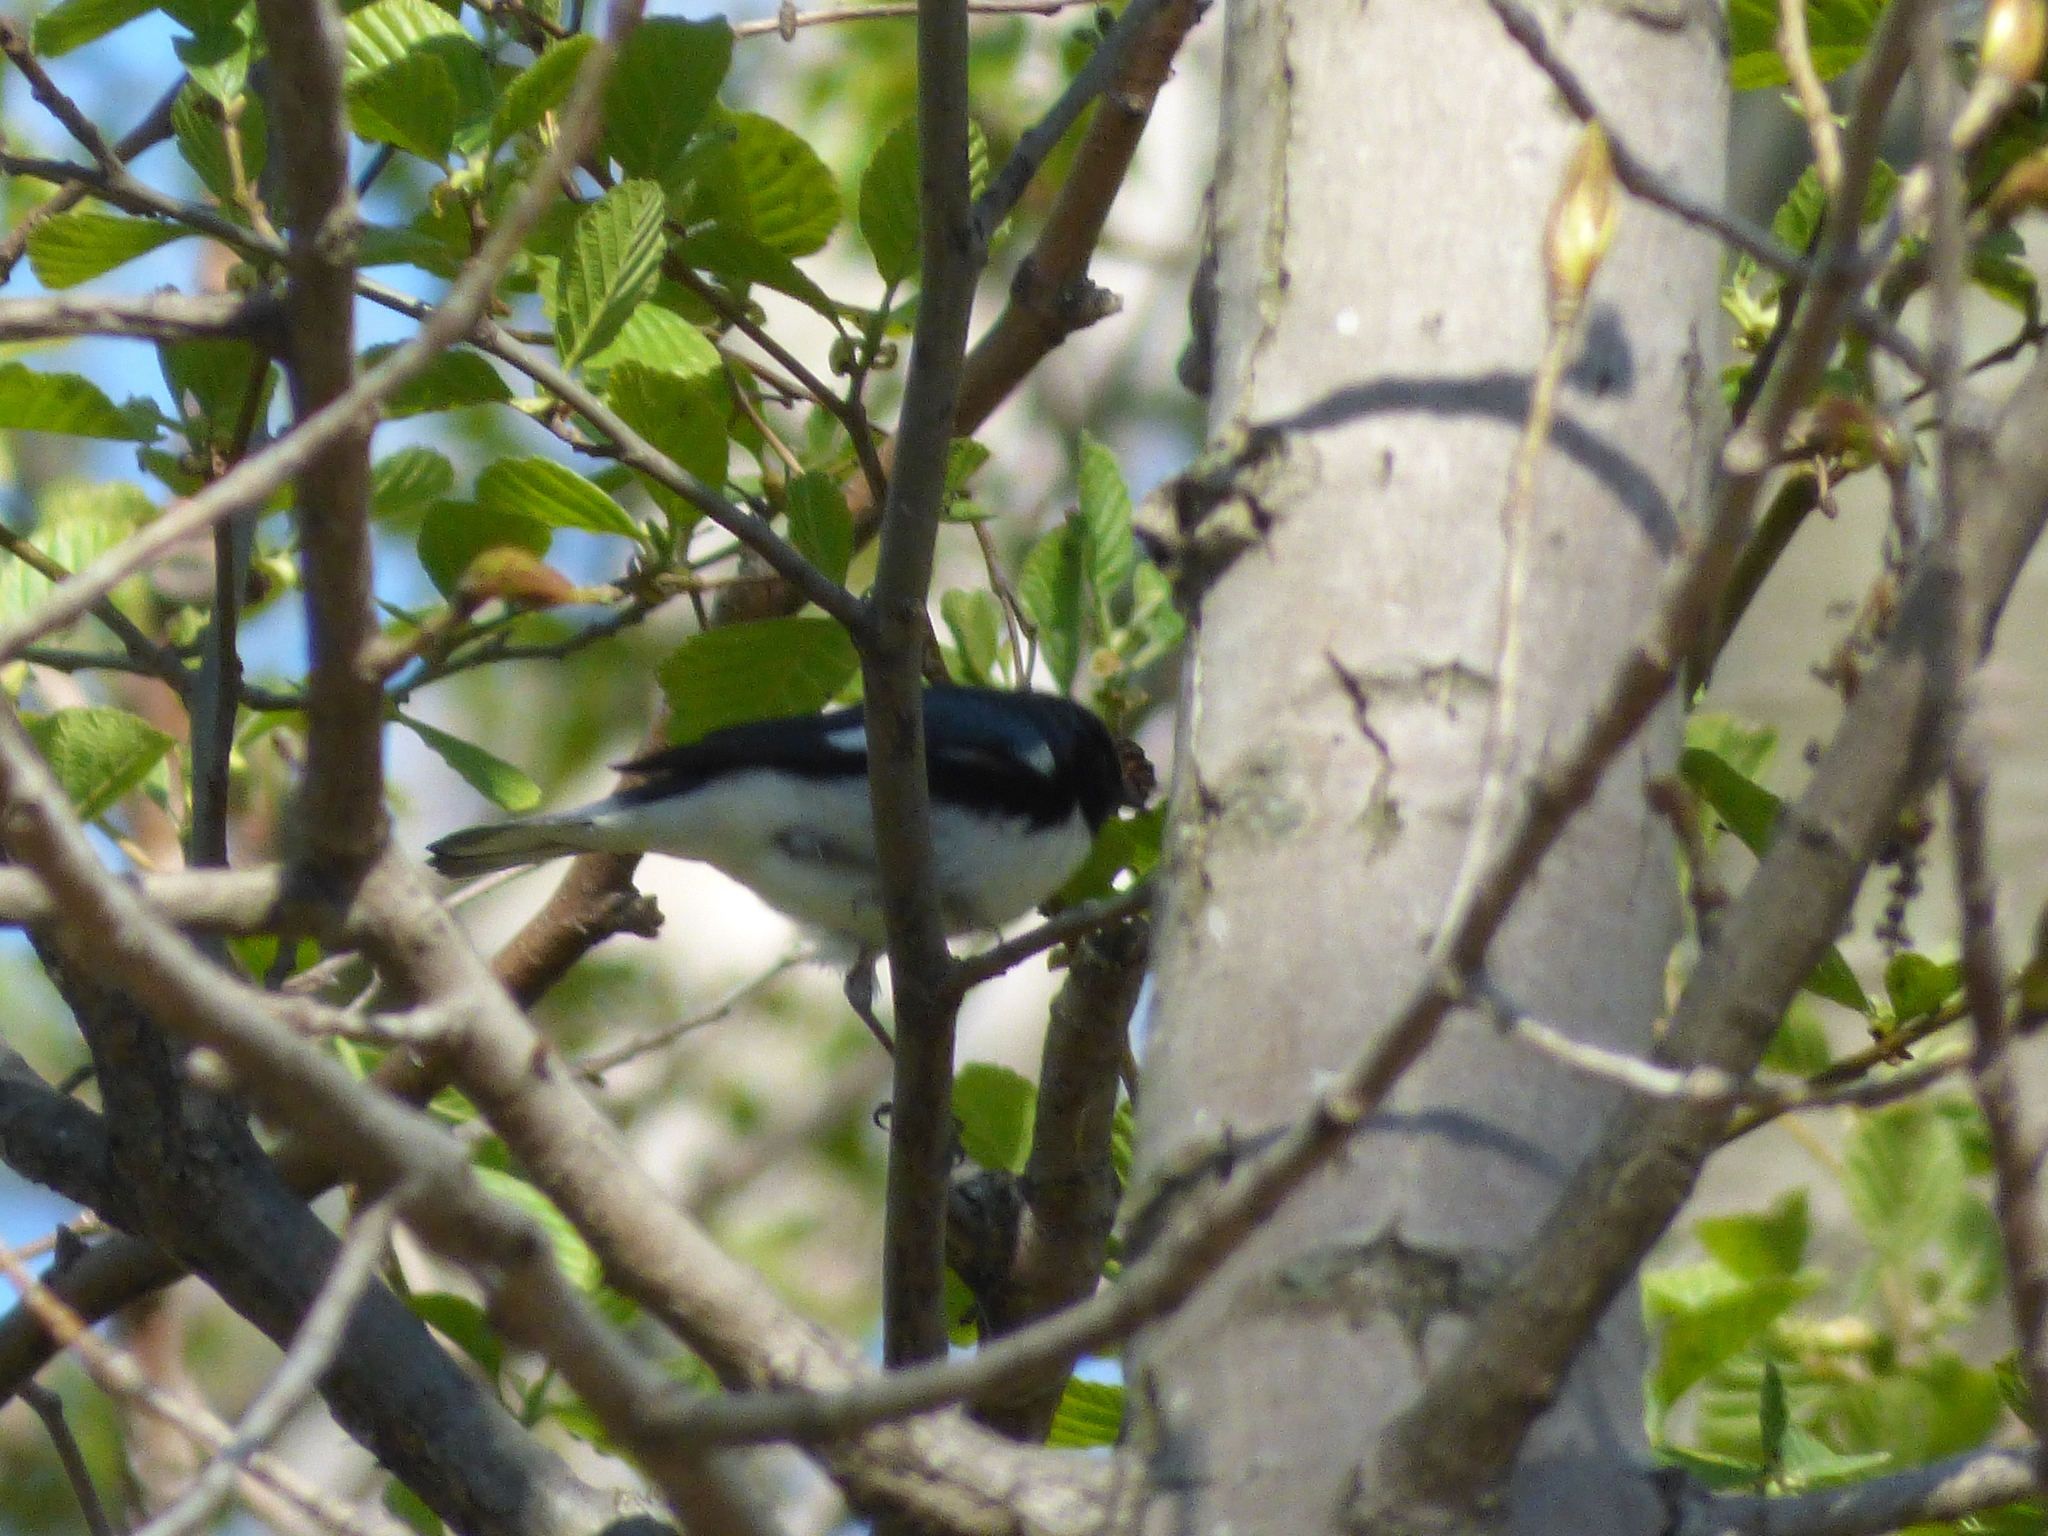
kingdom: Animalia
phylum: Chordata
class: Aves
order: Passeriformes
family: Parulidae
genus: Setophaga
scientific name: Setophaga caerulescens
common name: Black-throated blue warbler
